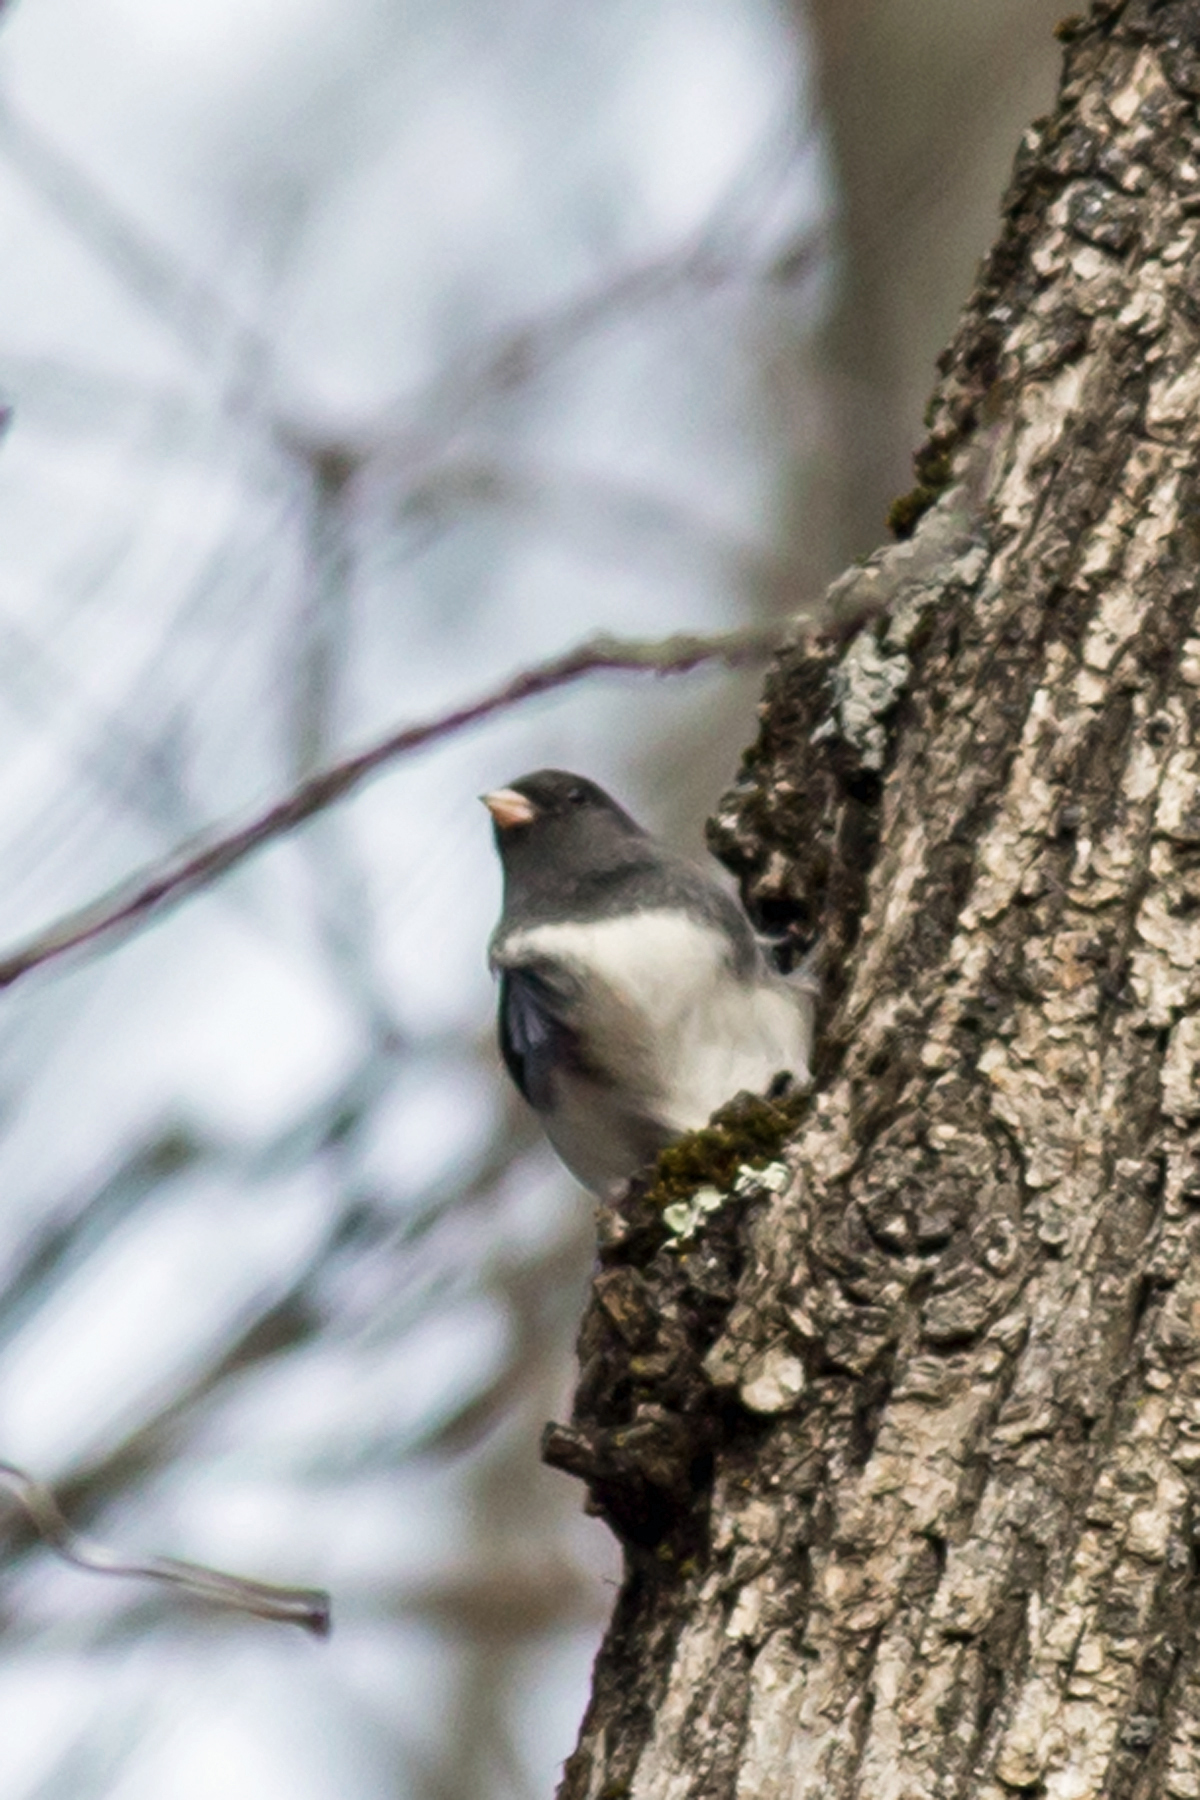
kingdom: Animalia
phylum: Chordata
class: Aves
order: Passeriformes
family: Passerellidae
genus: Junco
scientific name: Junco hyemalis
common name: Dark-eyed junco
